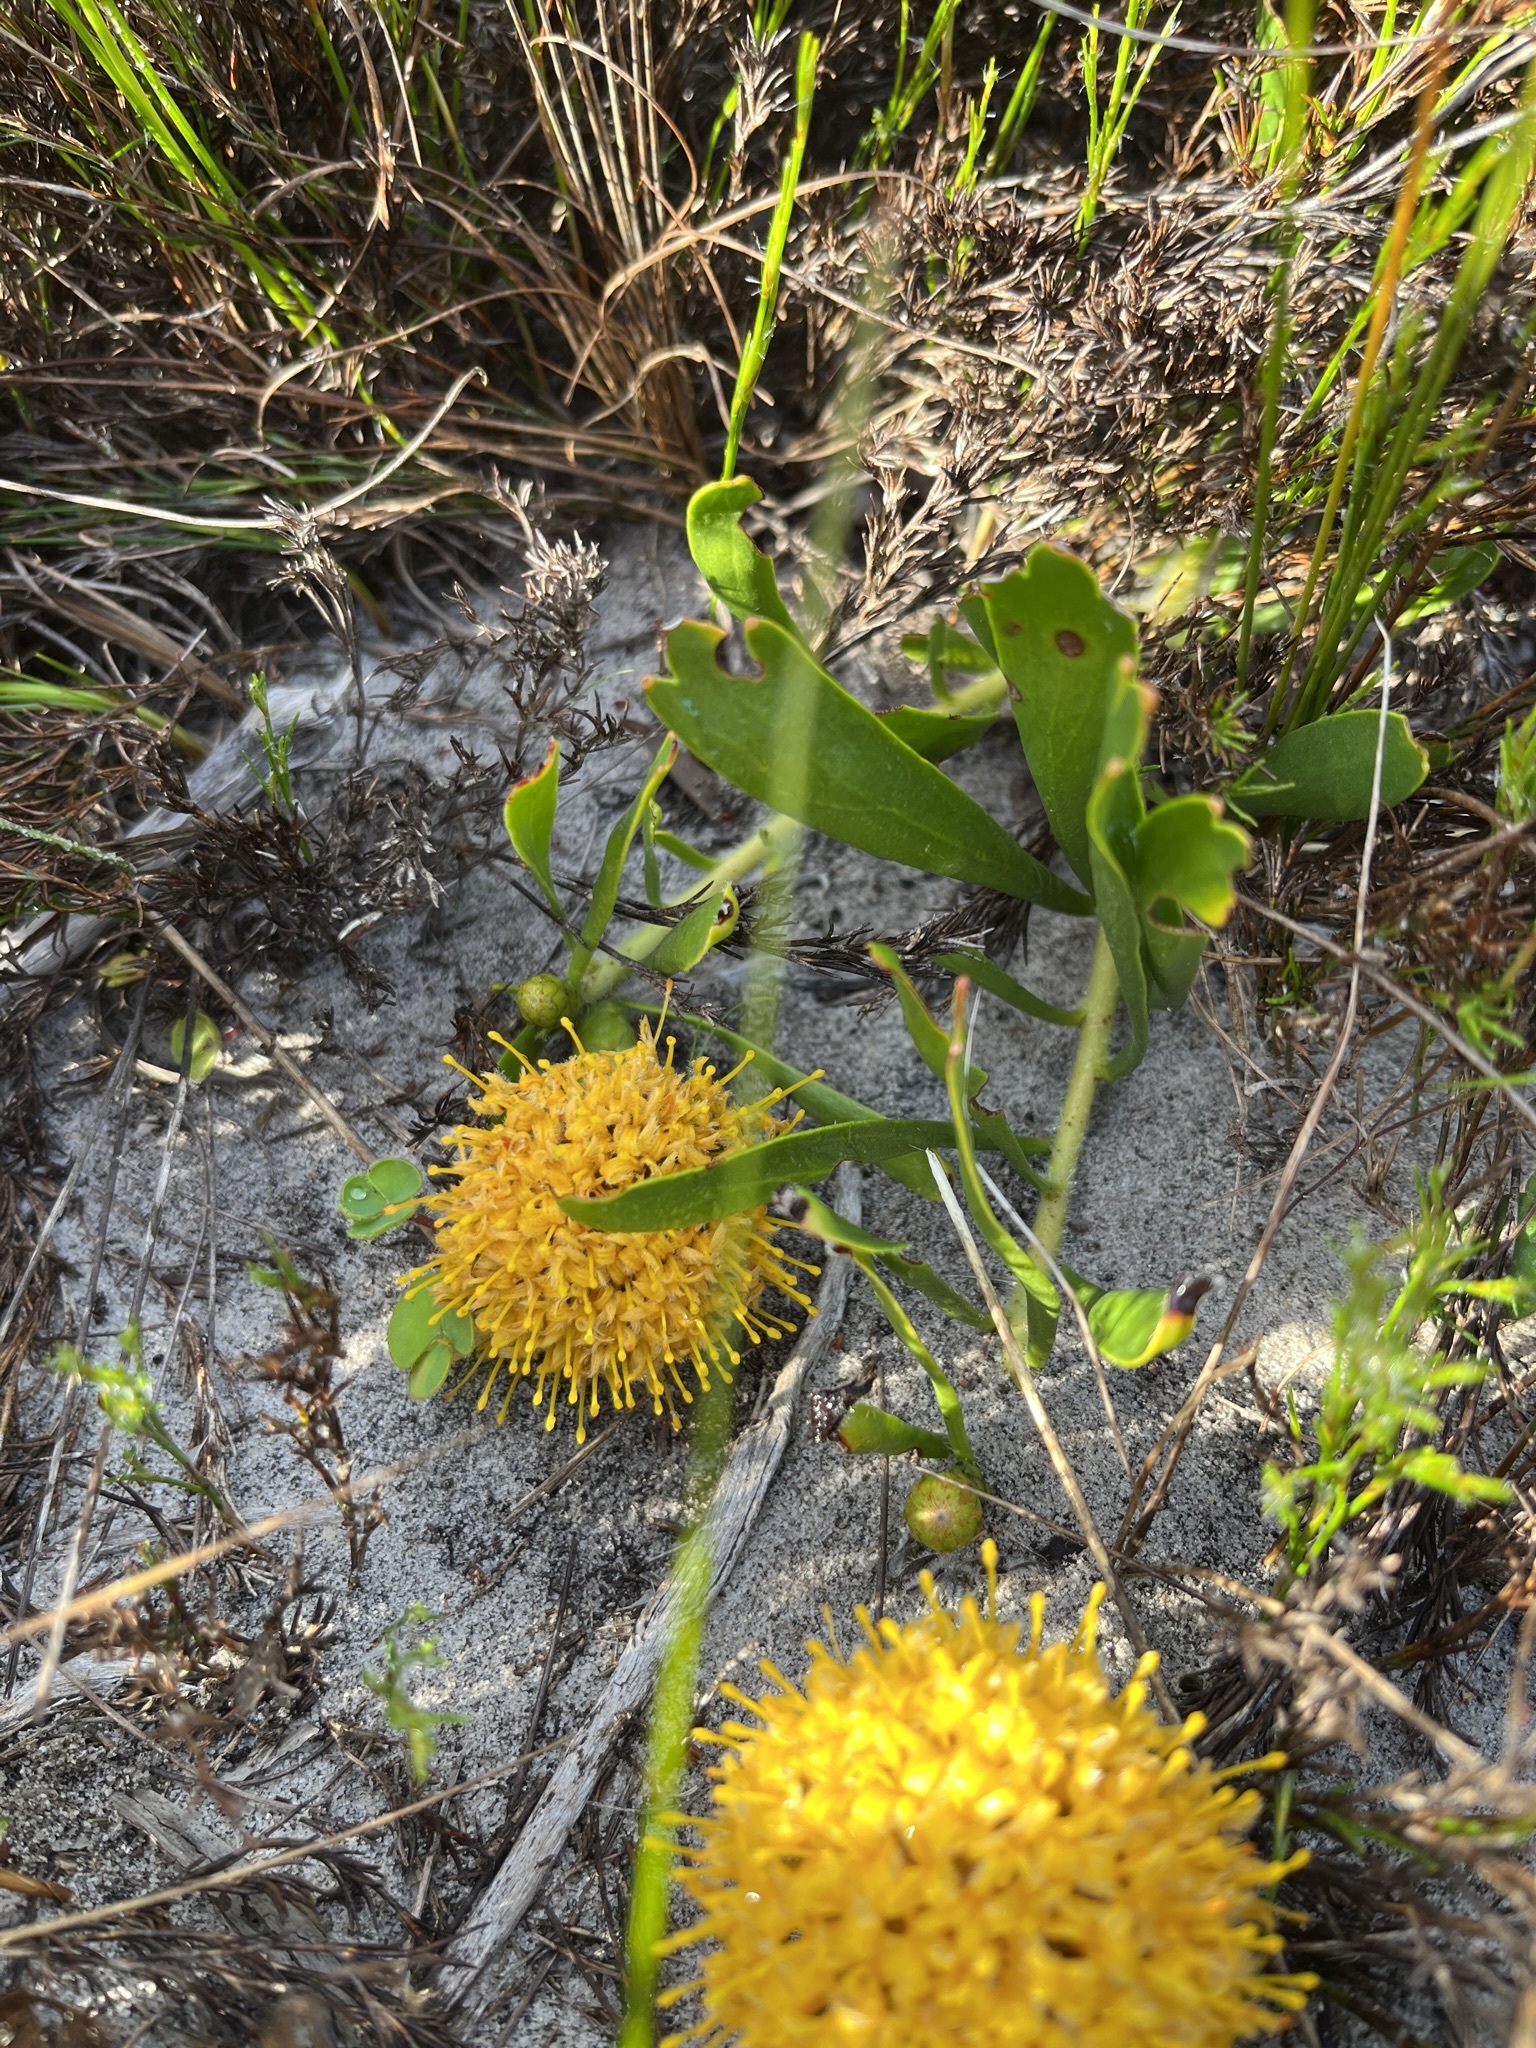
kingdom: Plantae
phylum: Tracheophyta
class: Magnoliopsida
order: Proteales
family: Proteaceae
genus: Leucospermum
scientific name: Leucospermum hypophyllocarpodendron
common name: Snakestem pincushion
